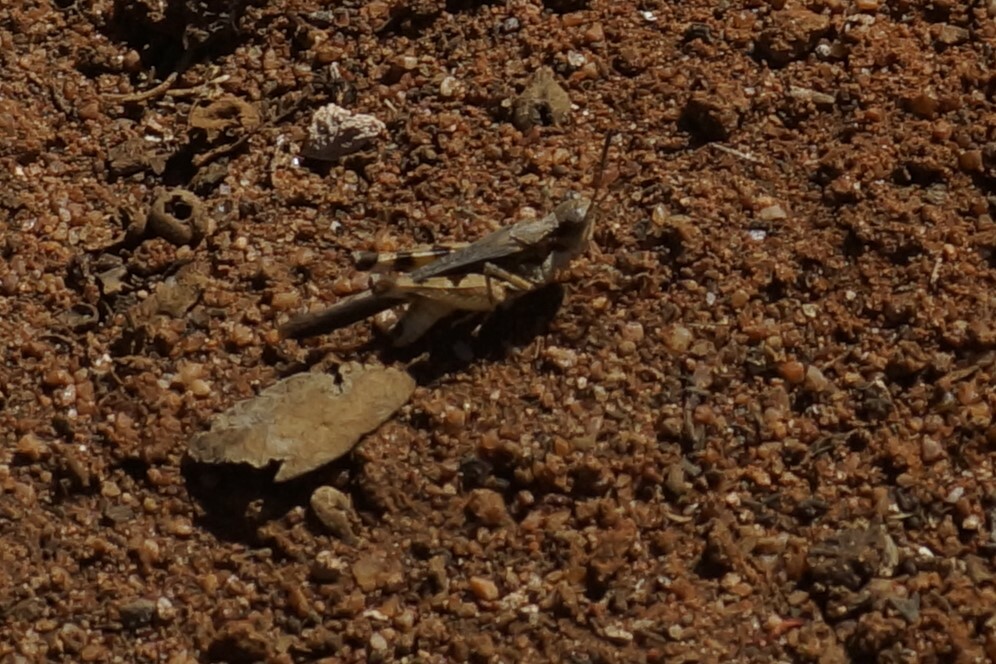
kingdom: Animalia
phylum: Arthropoda
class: Insecta
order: Orthoptera
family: Acrididae
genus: Pycnostictus
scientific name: Pycnostictus seriatus
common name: Common bandwing
